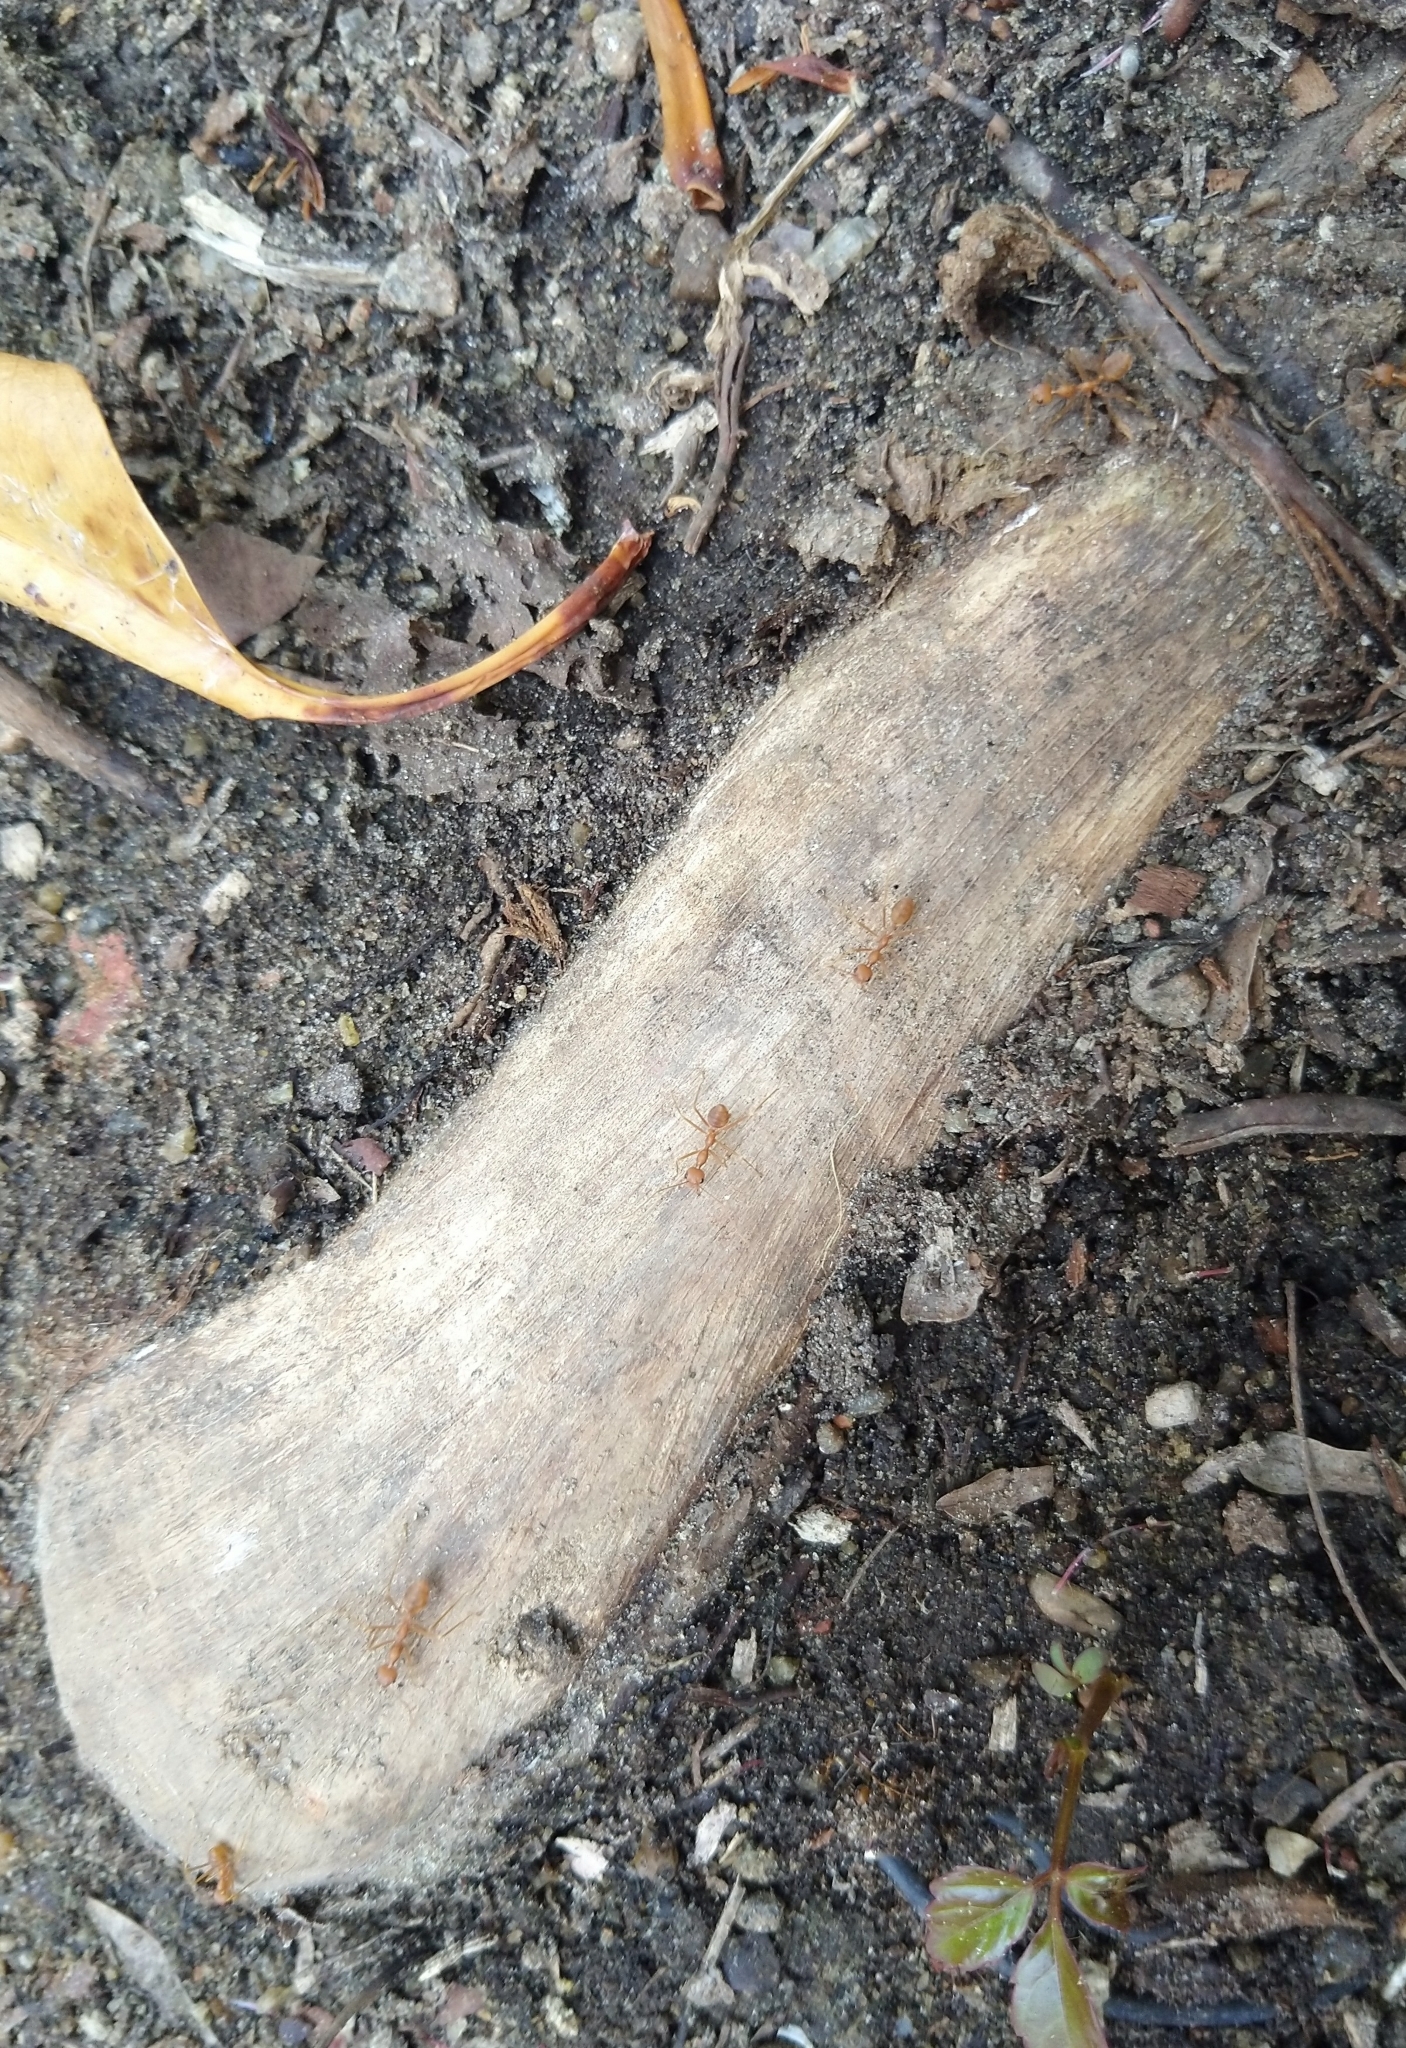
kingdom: Animalia
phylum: Arthropoda
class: Insecta
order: Hymenoptera
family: Formicidae
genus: Oecophylla
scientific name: Oecophylla smaragdina
